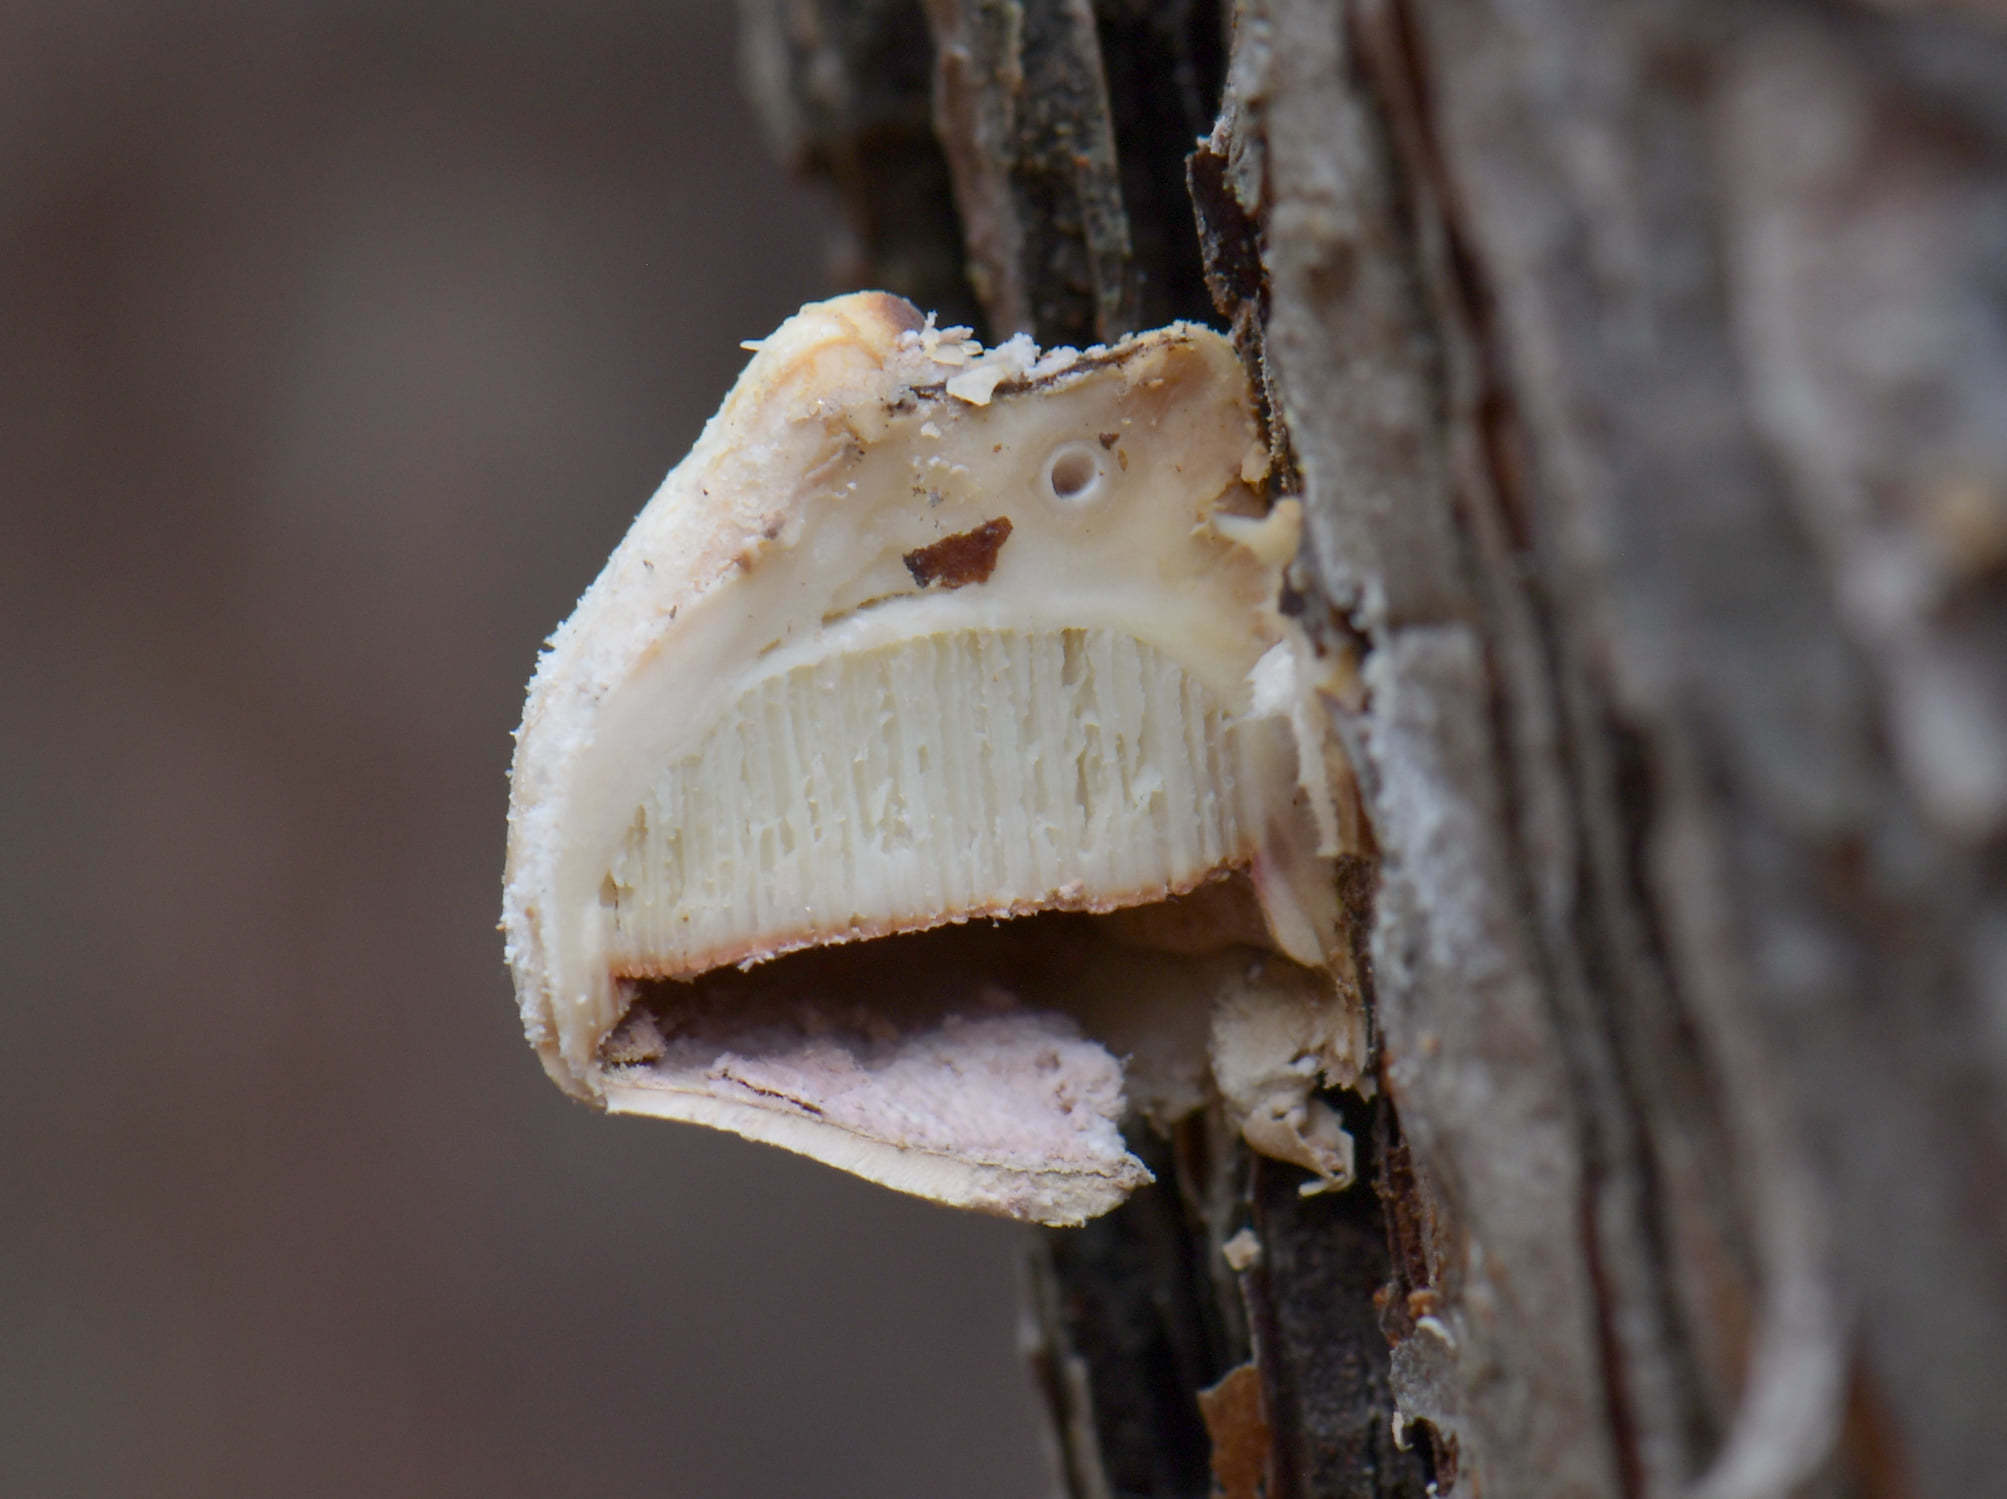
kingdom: Fungi
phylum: Basidiomycota
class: Agaricomycetes
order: Polyporales
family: Polyporaceae
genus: Cryptoporus
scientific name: Cryptoporus volvatus
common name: Veiled polypore
